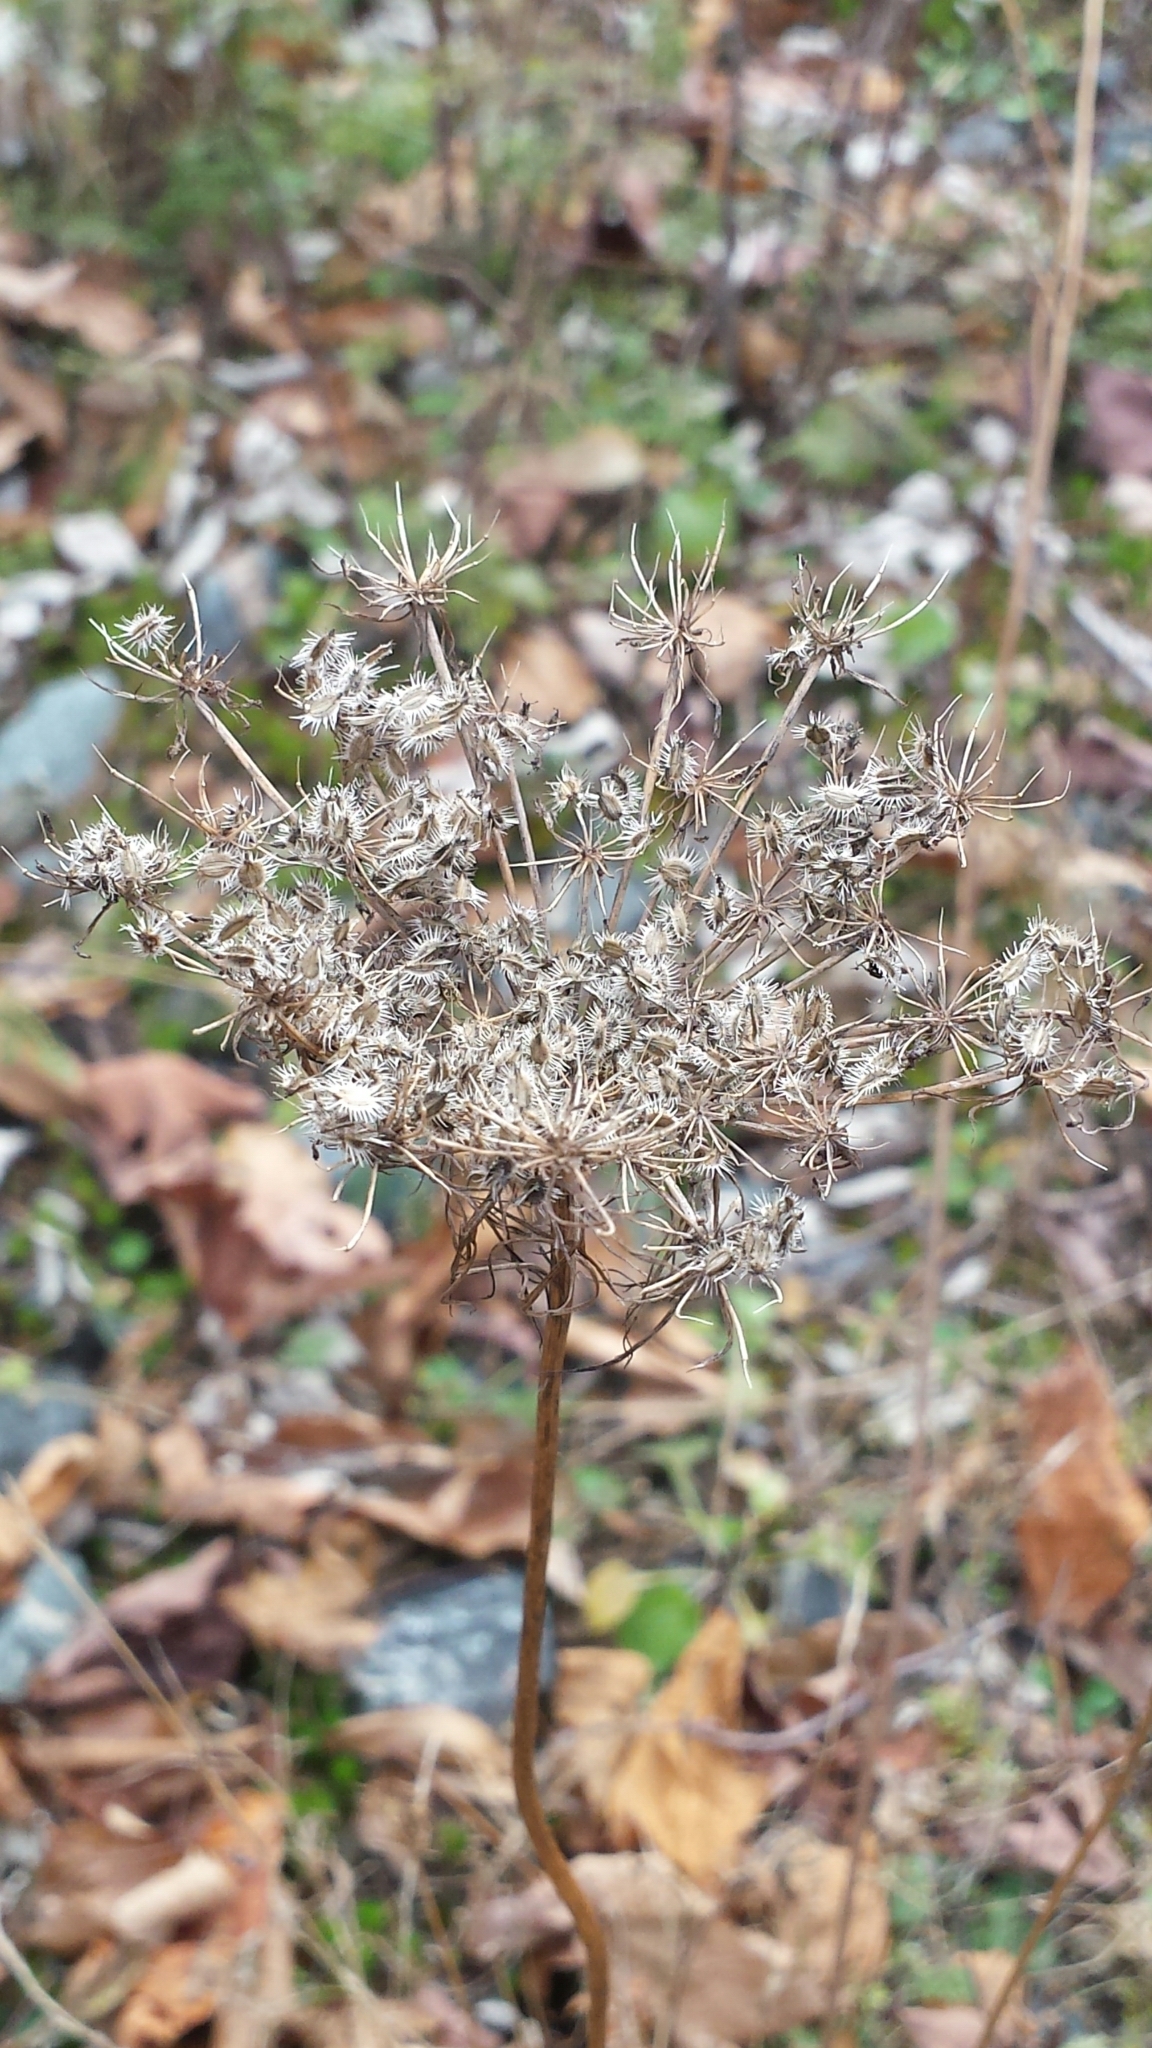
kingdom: Plantae
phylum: Tracheophyta
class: Magnoliopsida
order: Apiales
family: Apiaceae
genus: Daucus
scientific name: Daucus carota
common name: Wild carrot
